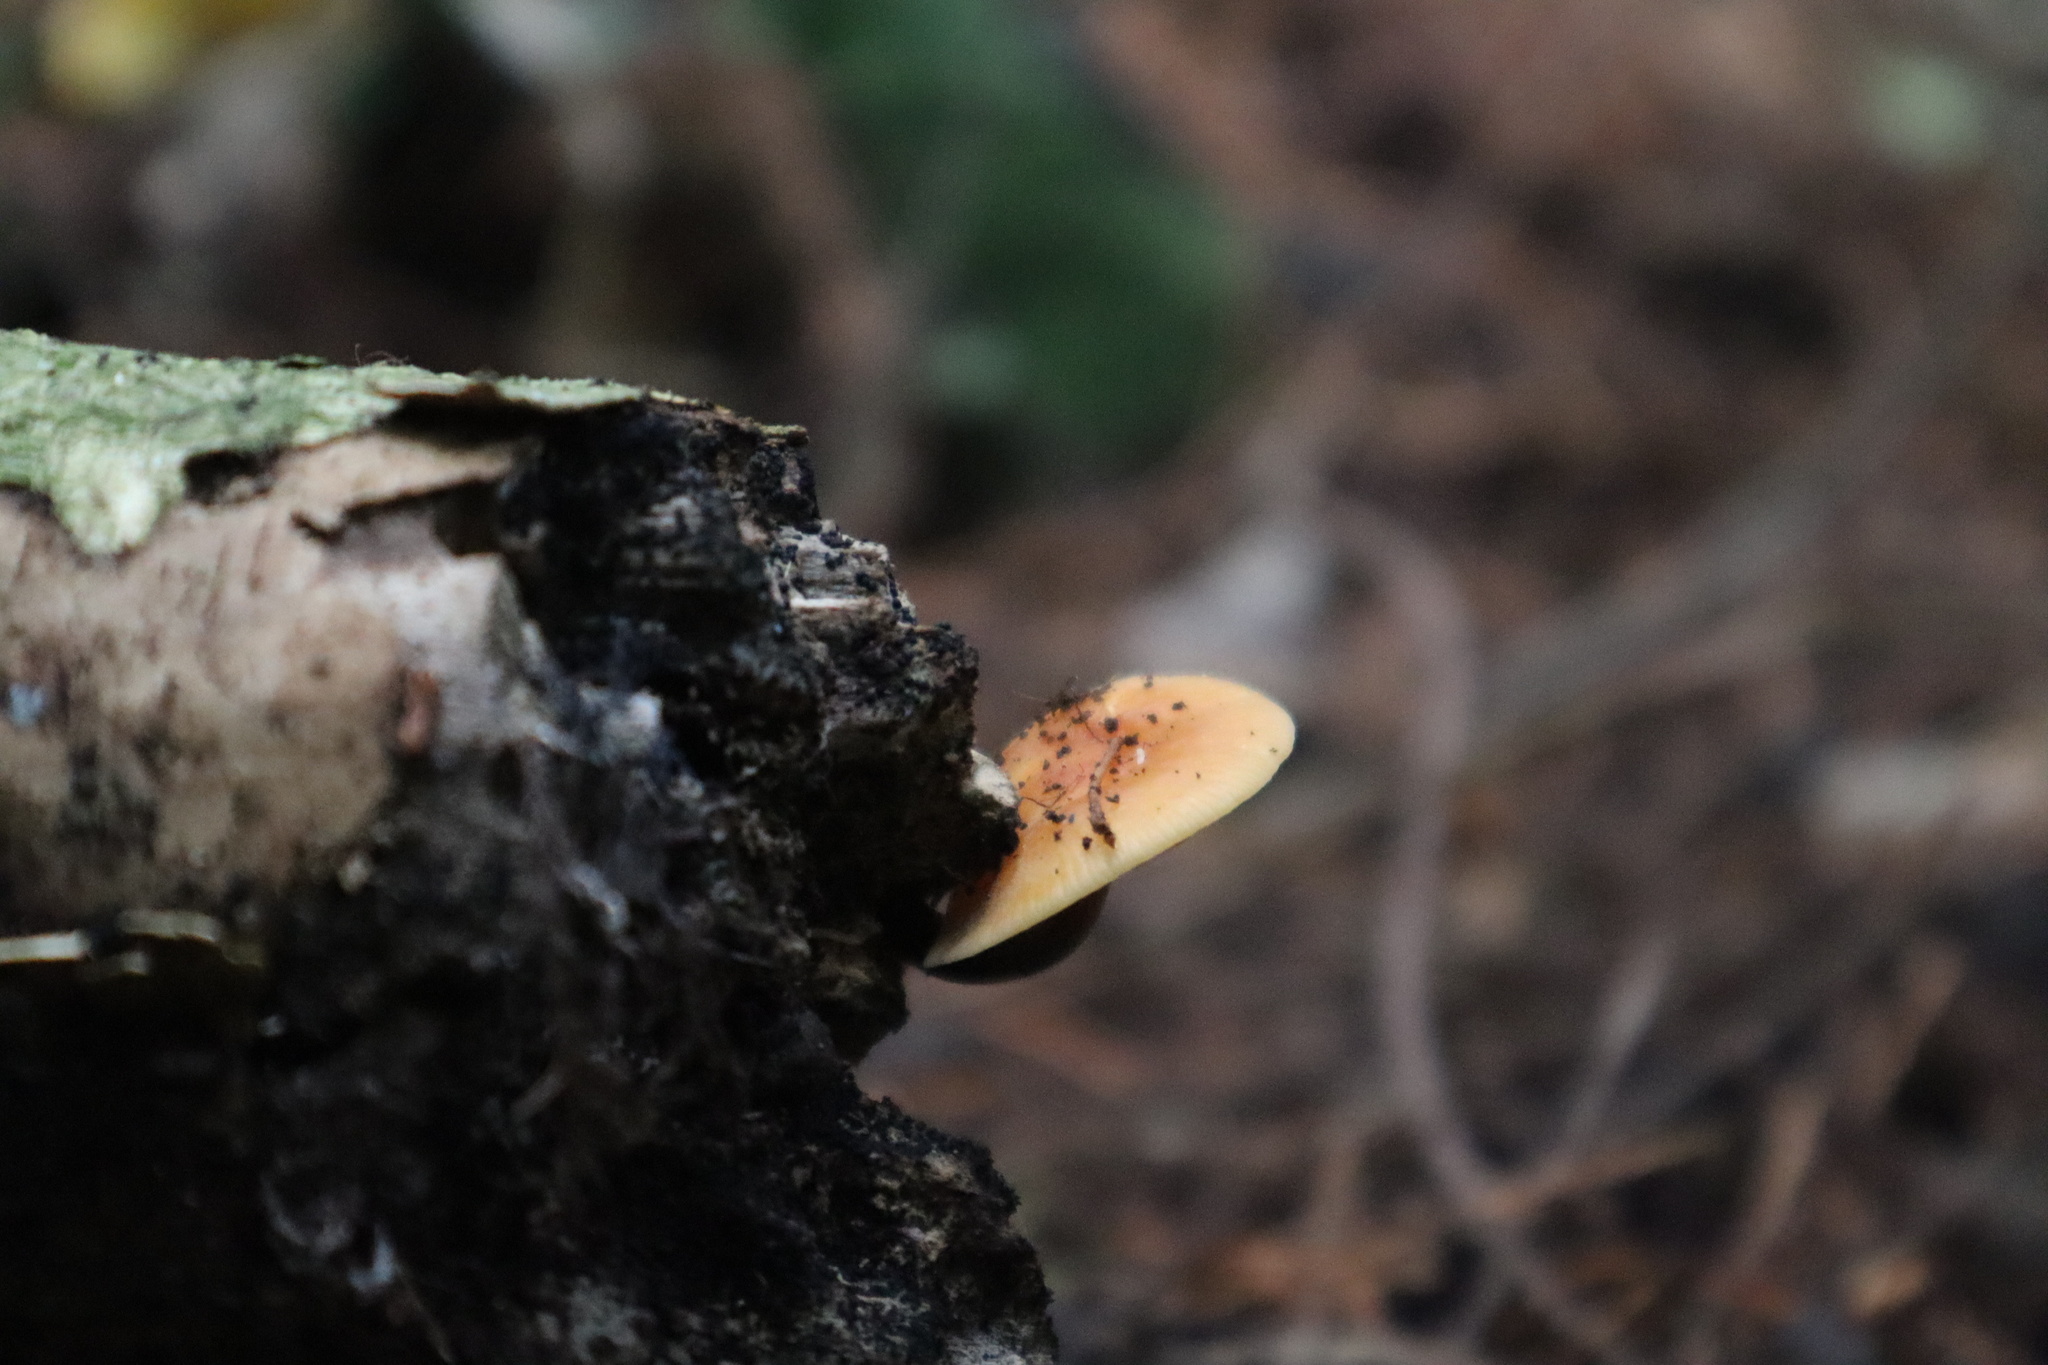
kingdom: Fungi
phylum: Basidiomycota
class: Agaricomycetes
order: Agaricales
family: Physalacriaceae
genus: Flammulina
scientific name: Flammulina velutipes
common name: Velvet shank
